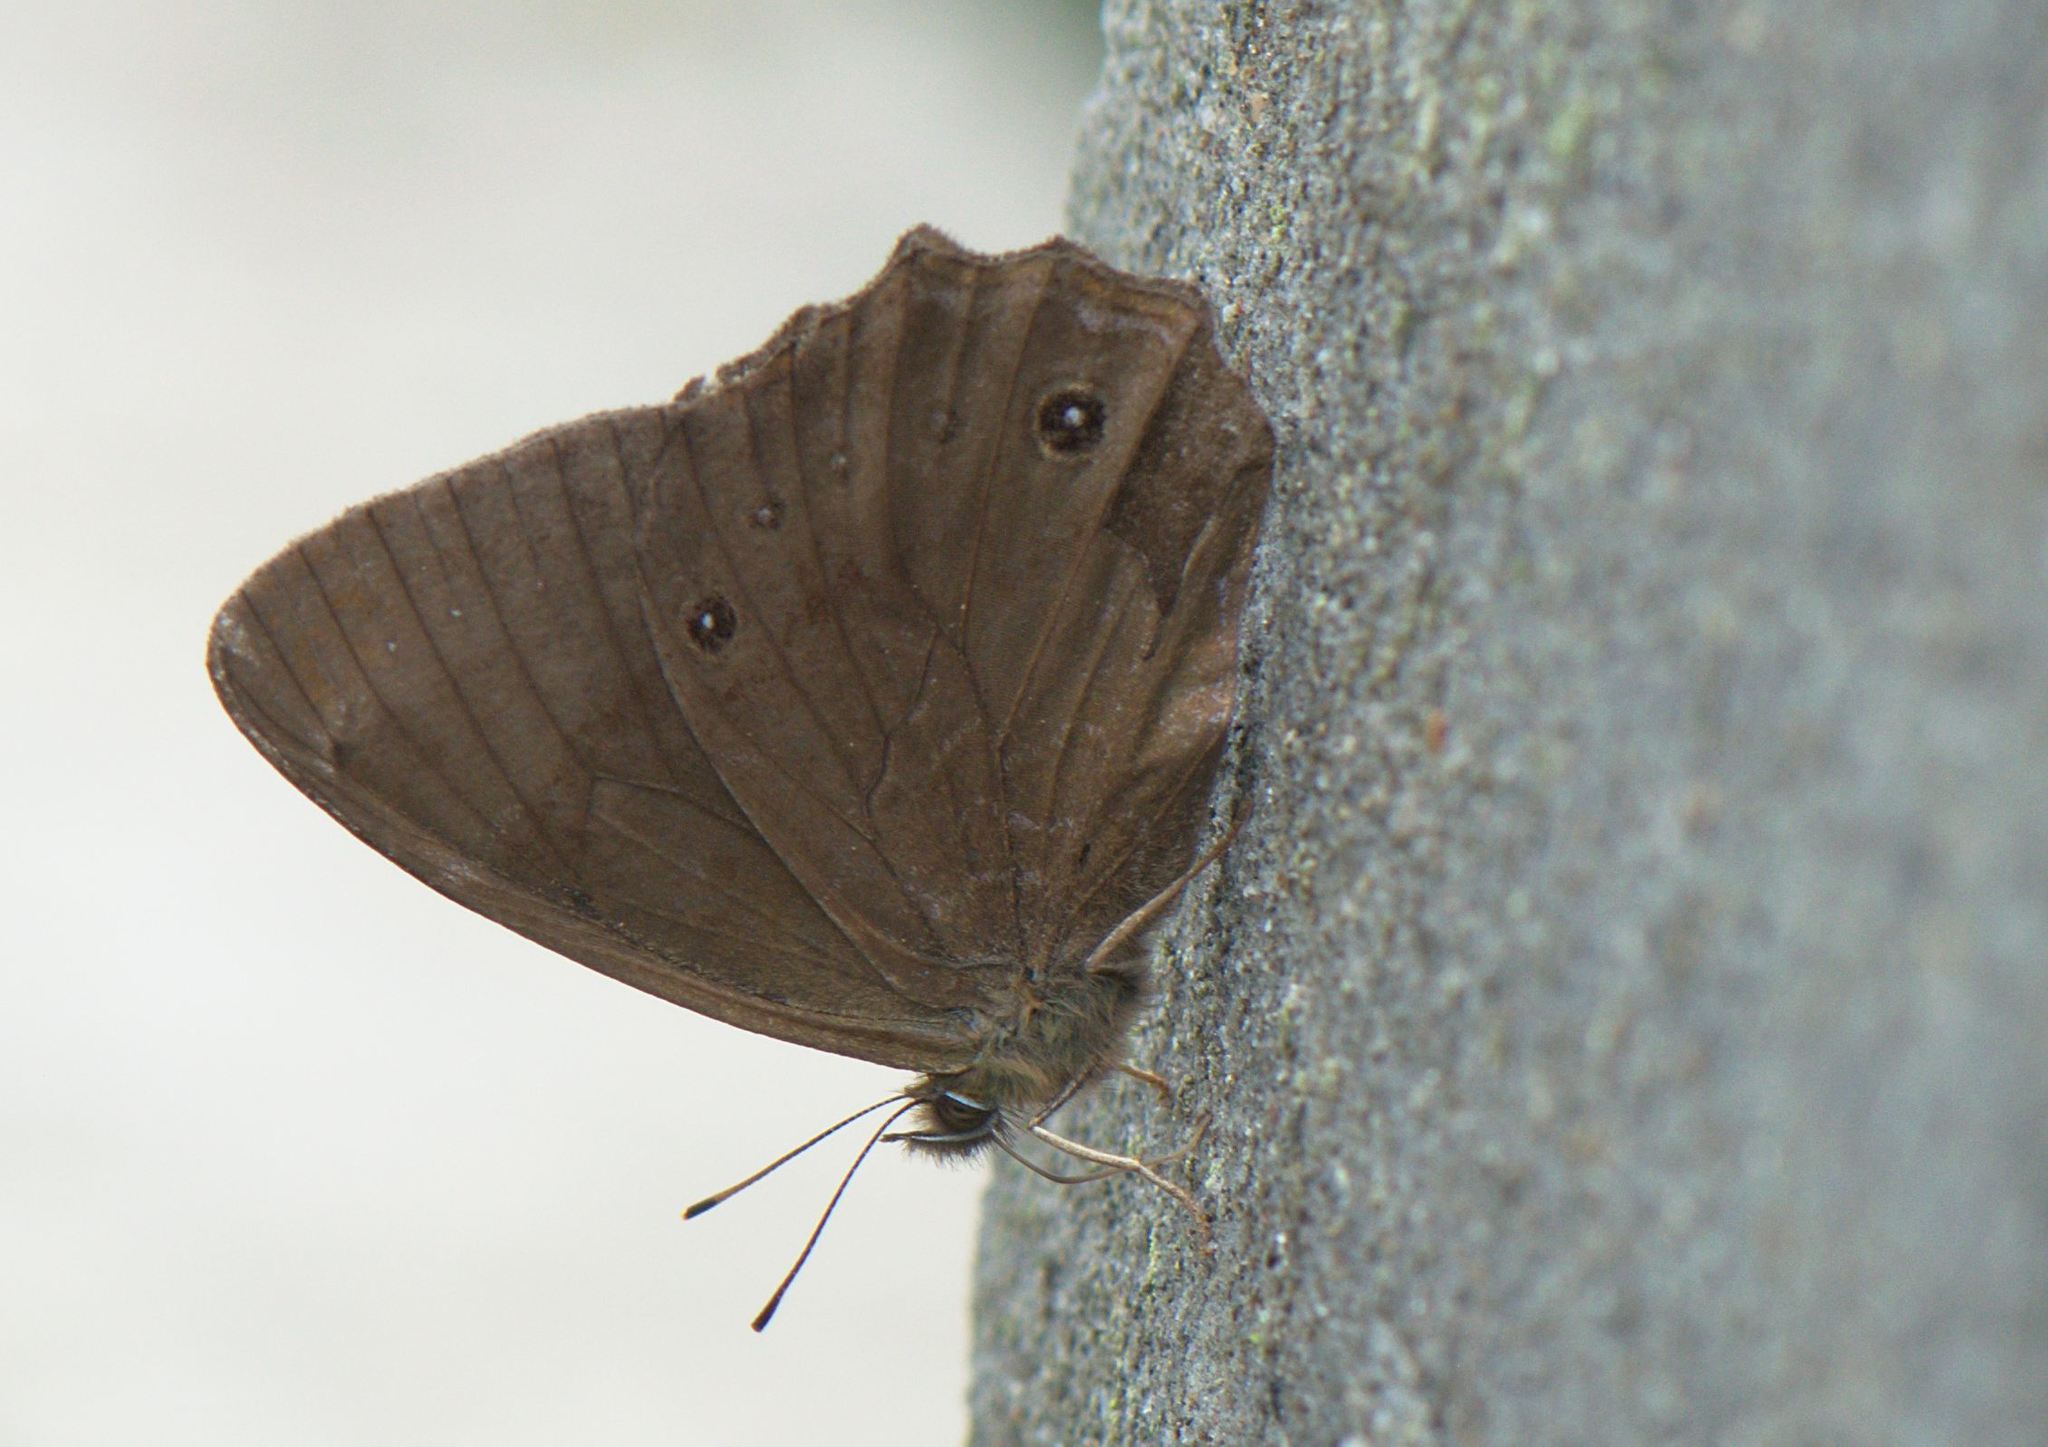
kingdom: Animalia
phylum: Arthropoda
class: Insecta
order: Lepidoptera
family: Nymphalidae
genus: Lethe
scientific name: Lethe sidonis
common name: Common woodbrown butterfly
